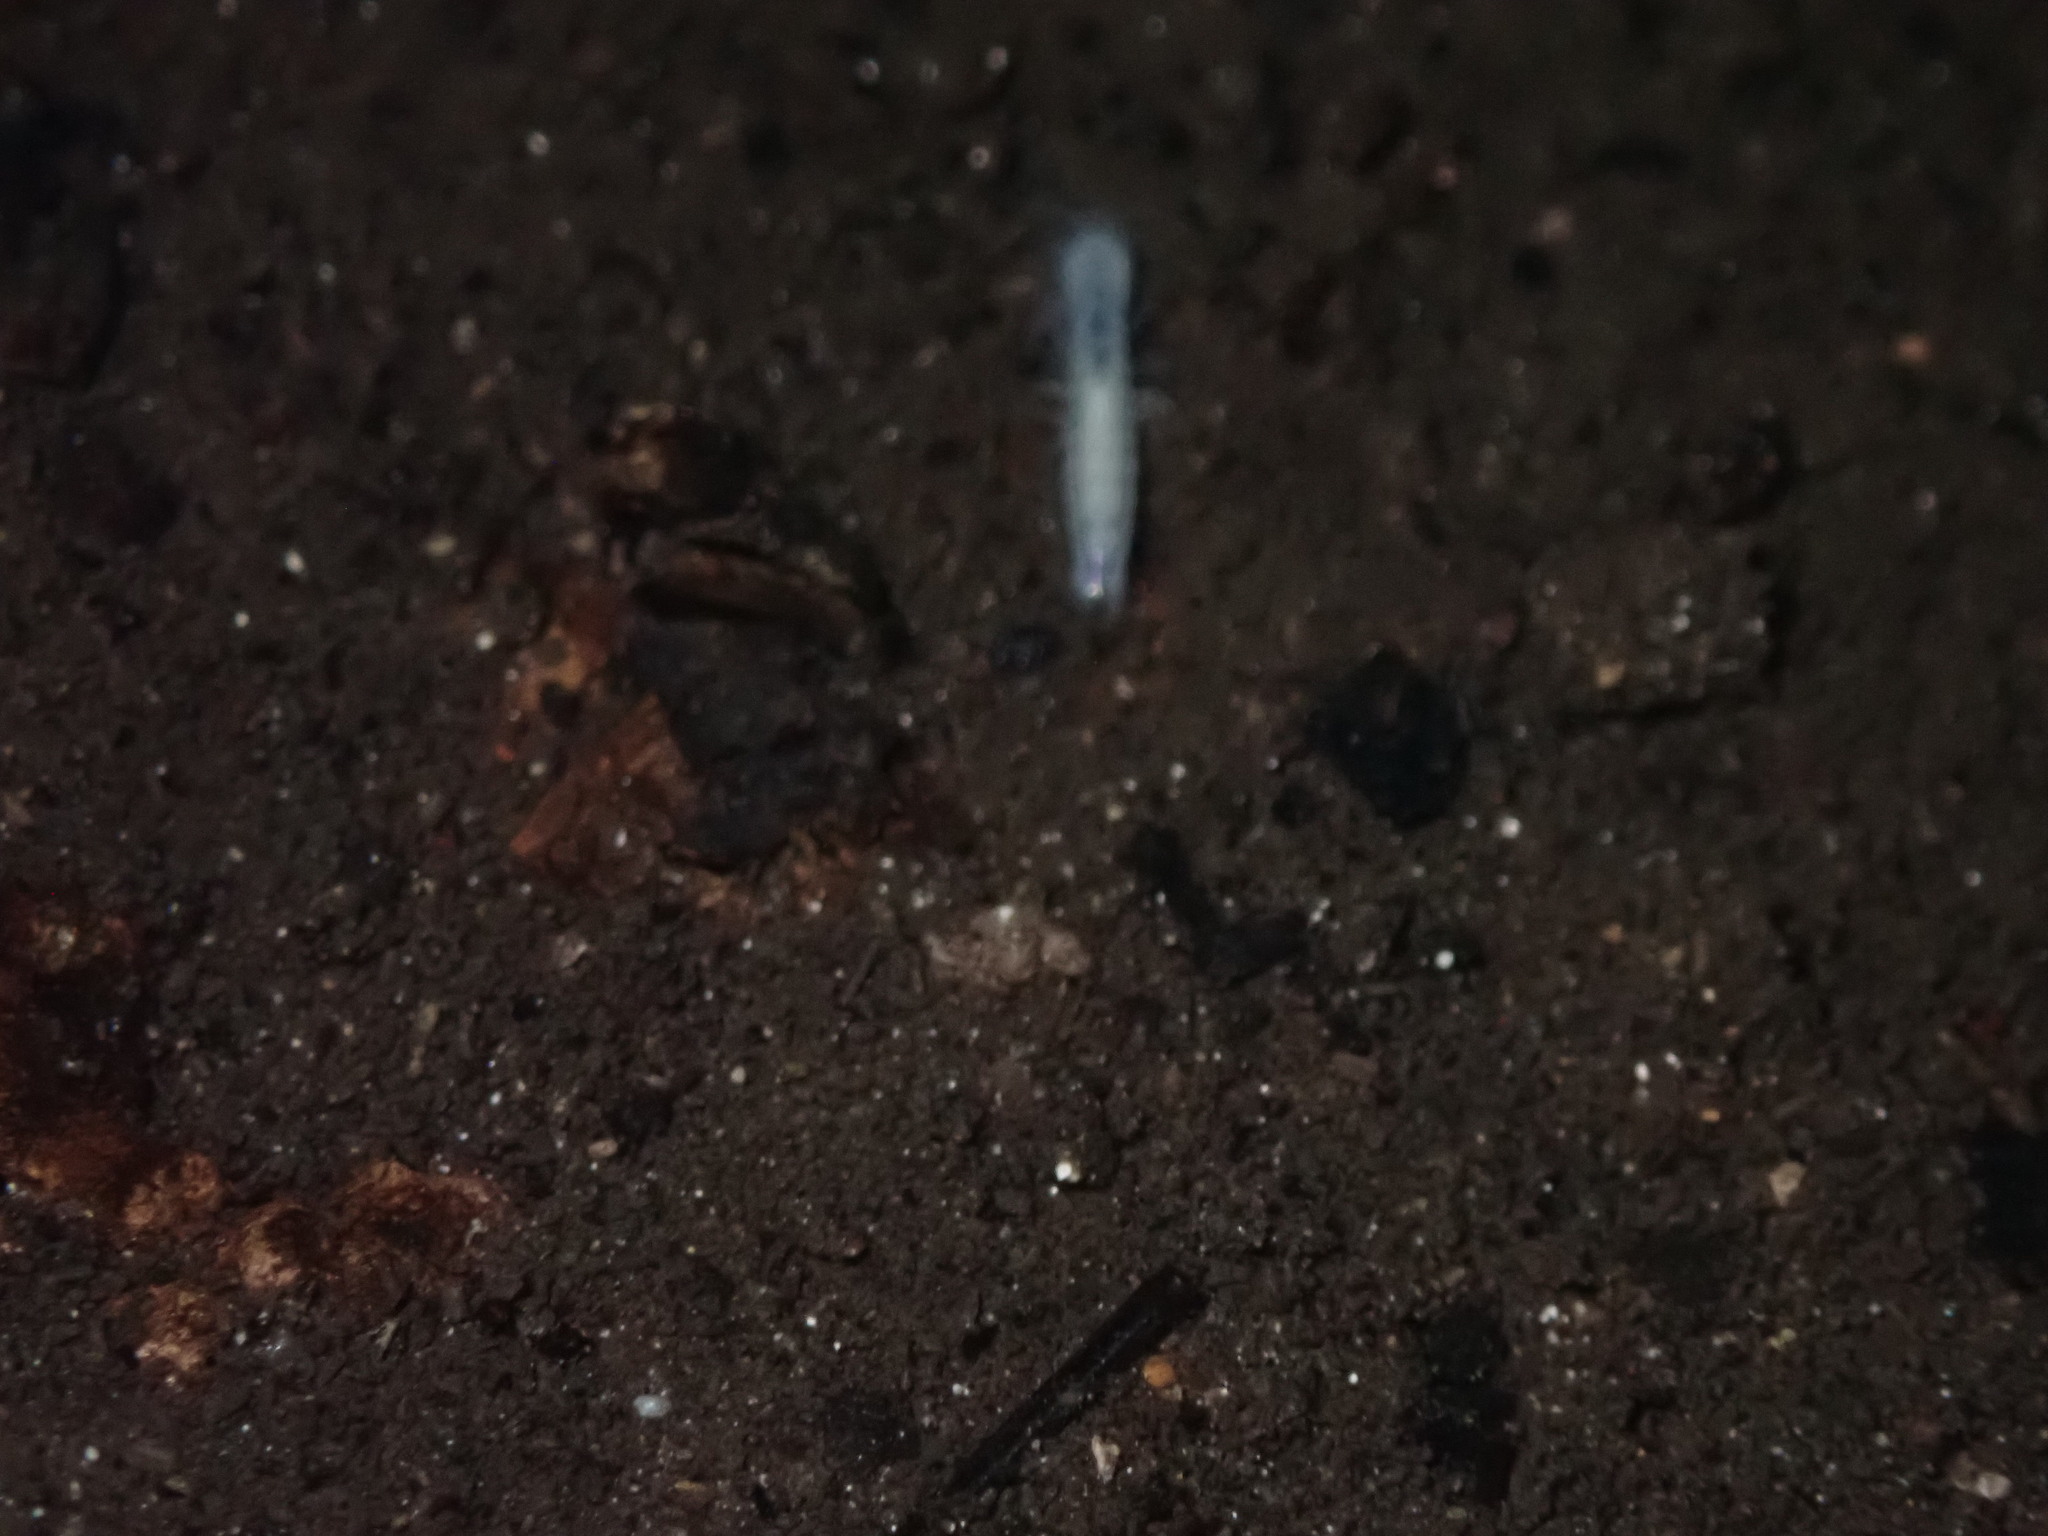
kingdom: Animalia
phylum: Arthropoda
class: Malacostraca
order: Mysida
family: Stygiomysidae
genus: Stygiomysis
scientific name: Stygiomysis holthuisi
